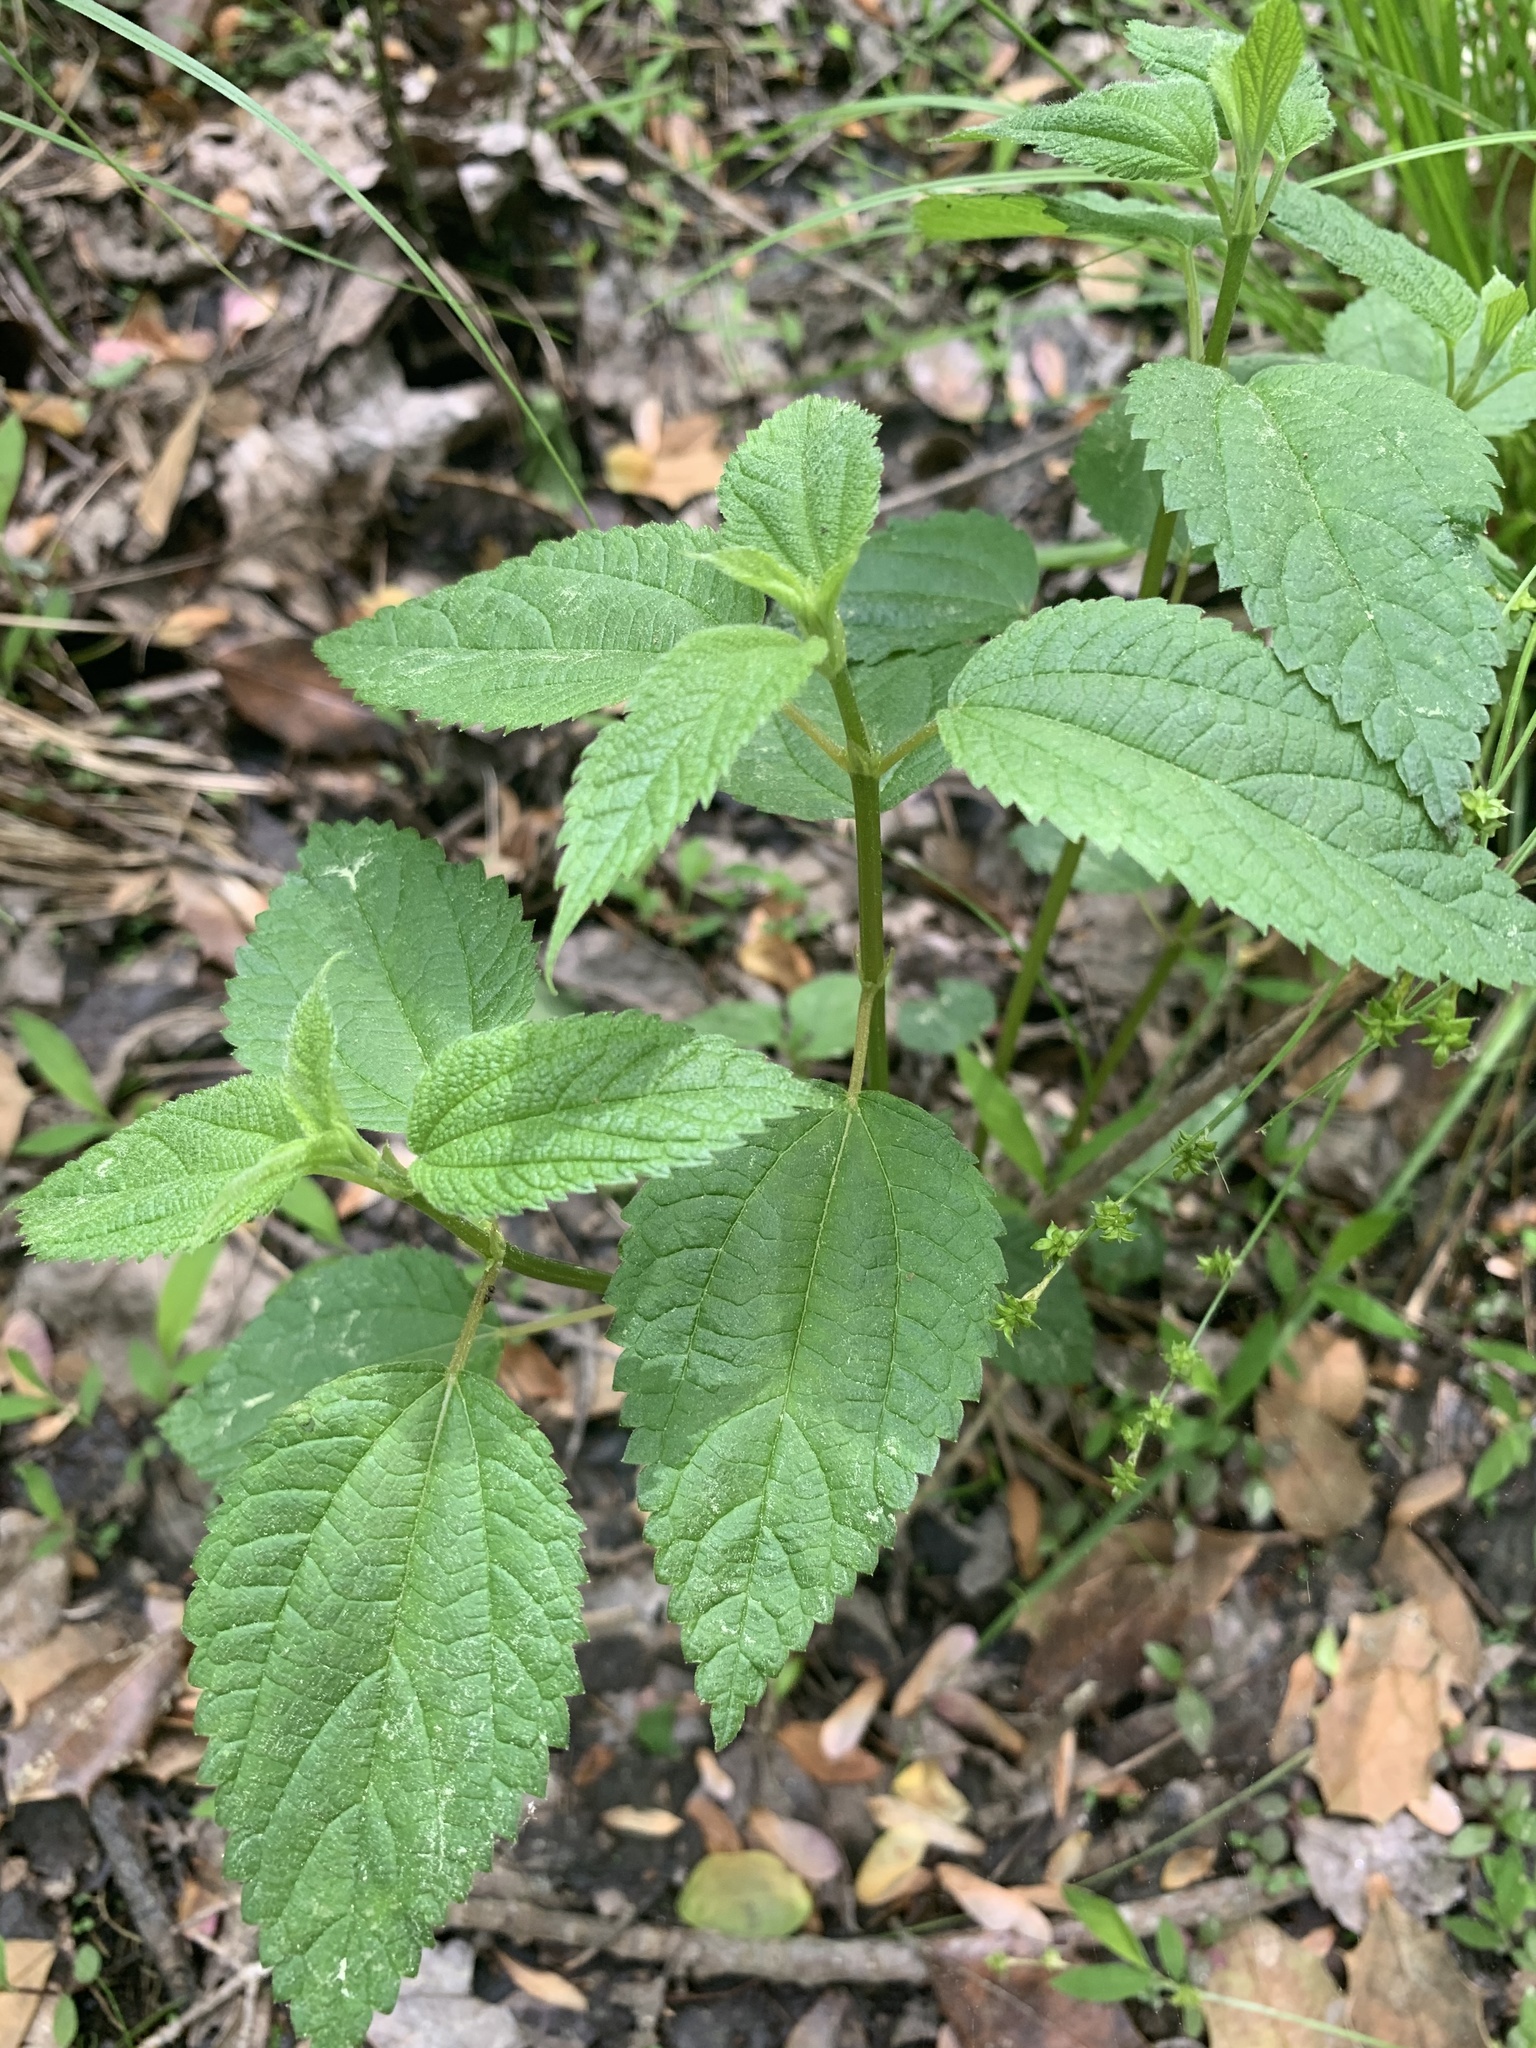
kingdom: Plantae
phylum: Tracheophyta
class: Magnoliopsida
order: Rosales
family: Urticaceae
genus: Boehmeria
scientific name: Boehmeria cylindrica
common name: Bog-hemp
